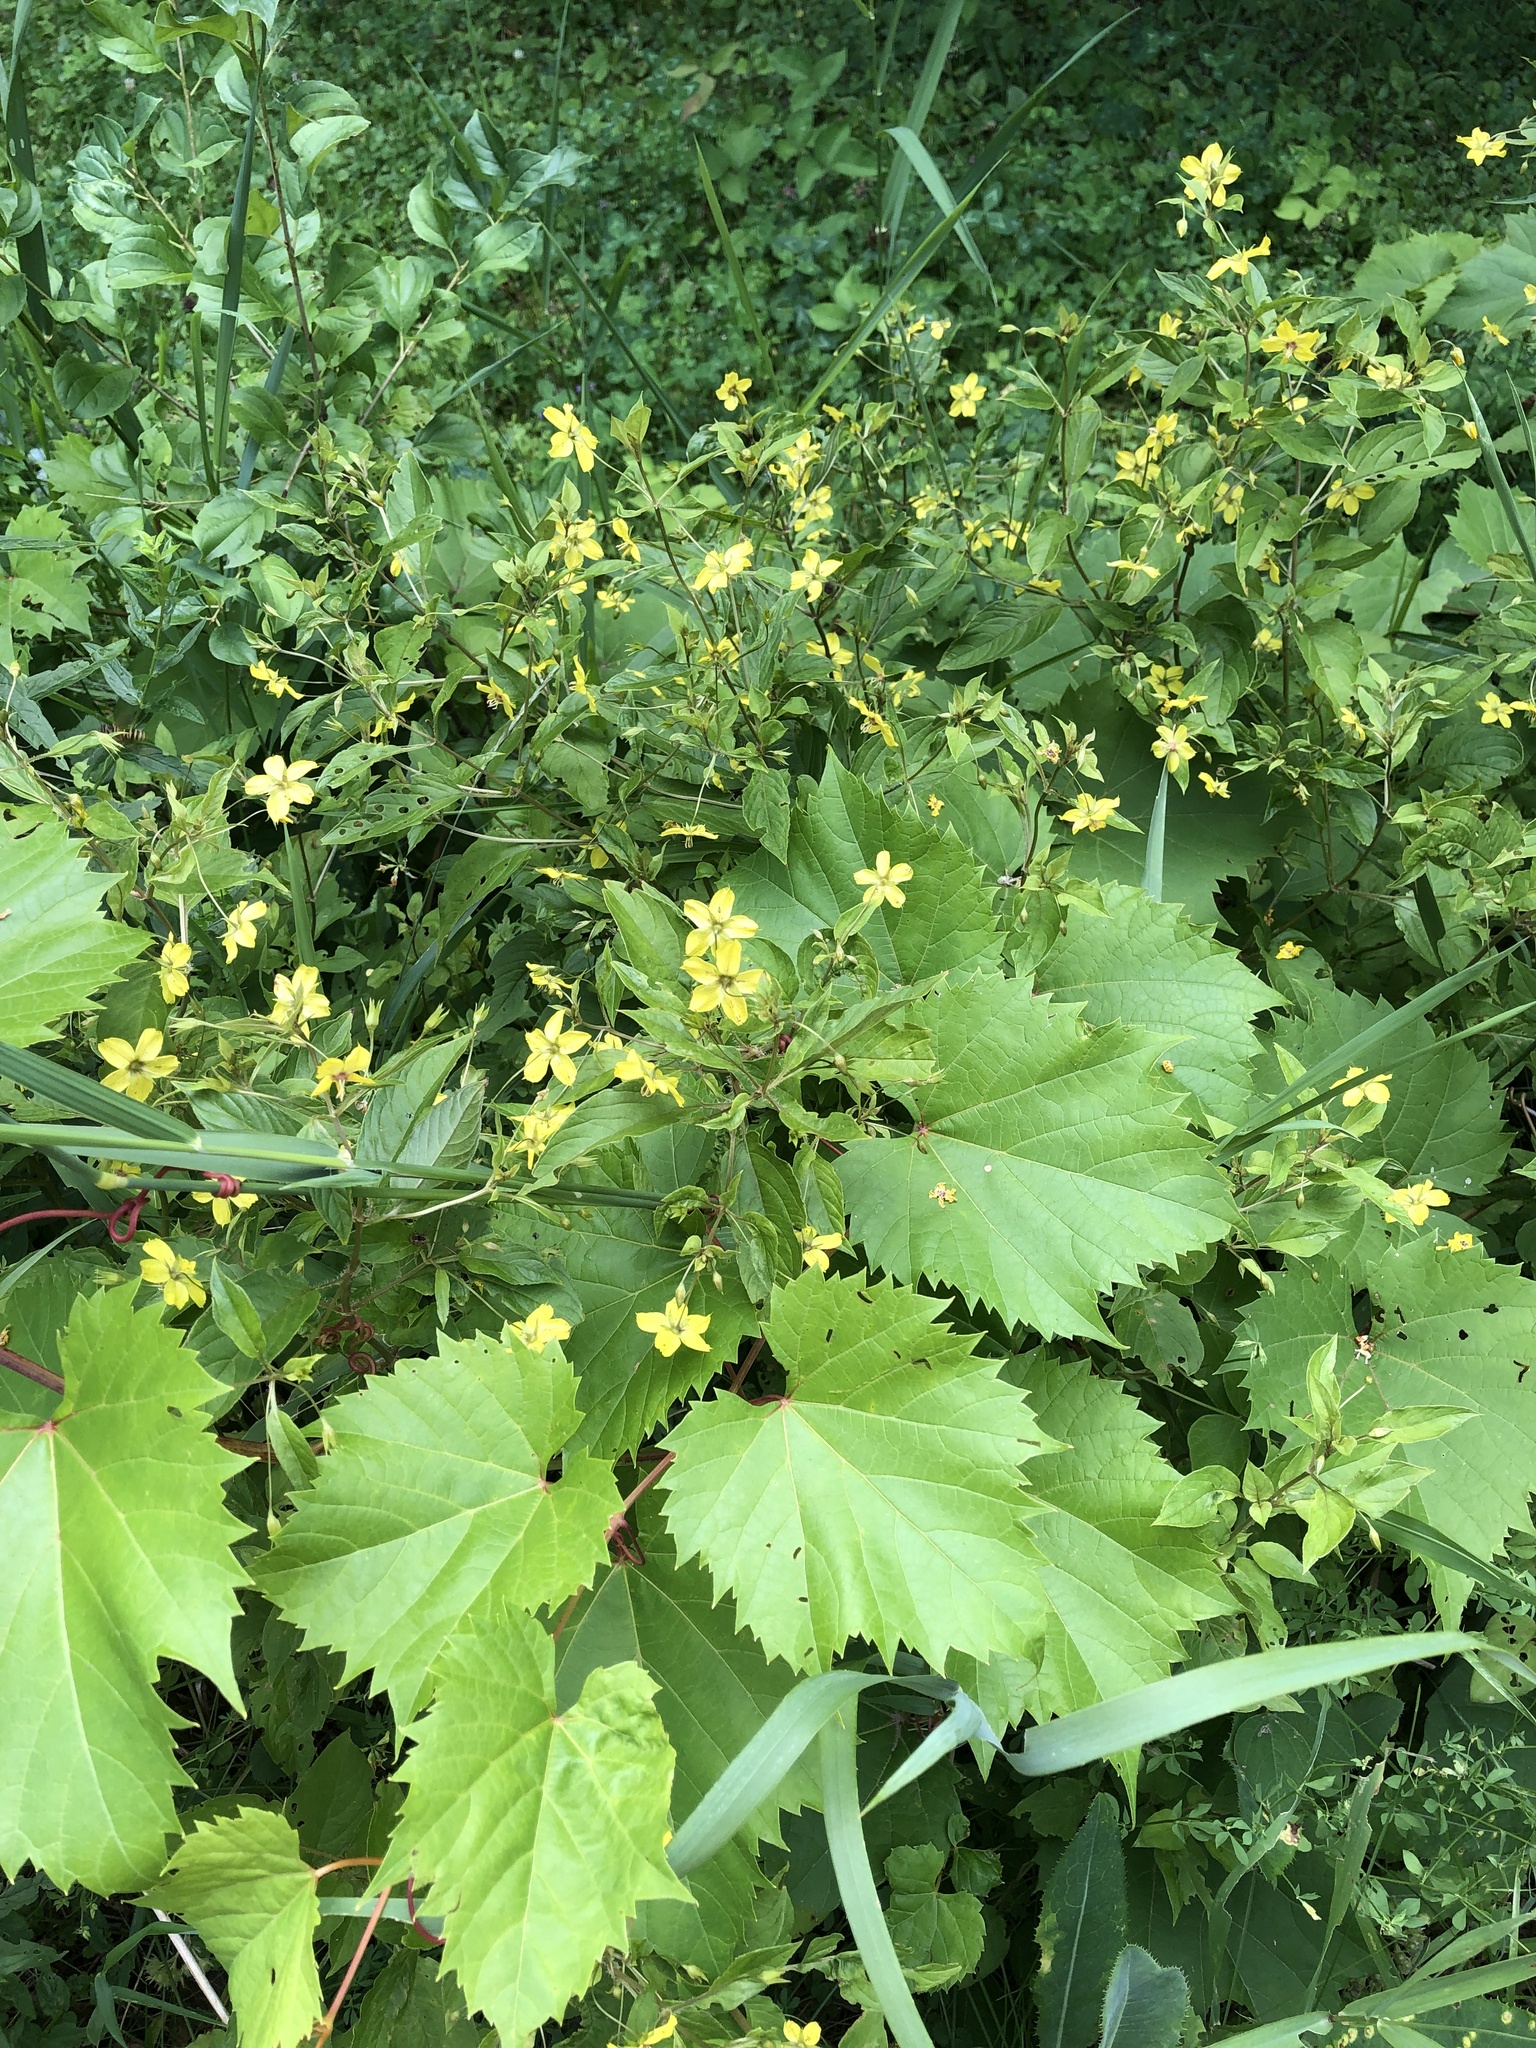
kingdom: Plantae
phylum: Tracheophyta
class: Magnoliopsida
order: Ericales
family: Primulaceae
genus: Lysimachia
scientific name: Lysimachia ciliata
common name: Fringed loosestrife
